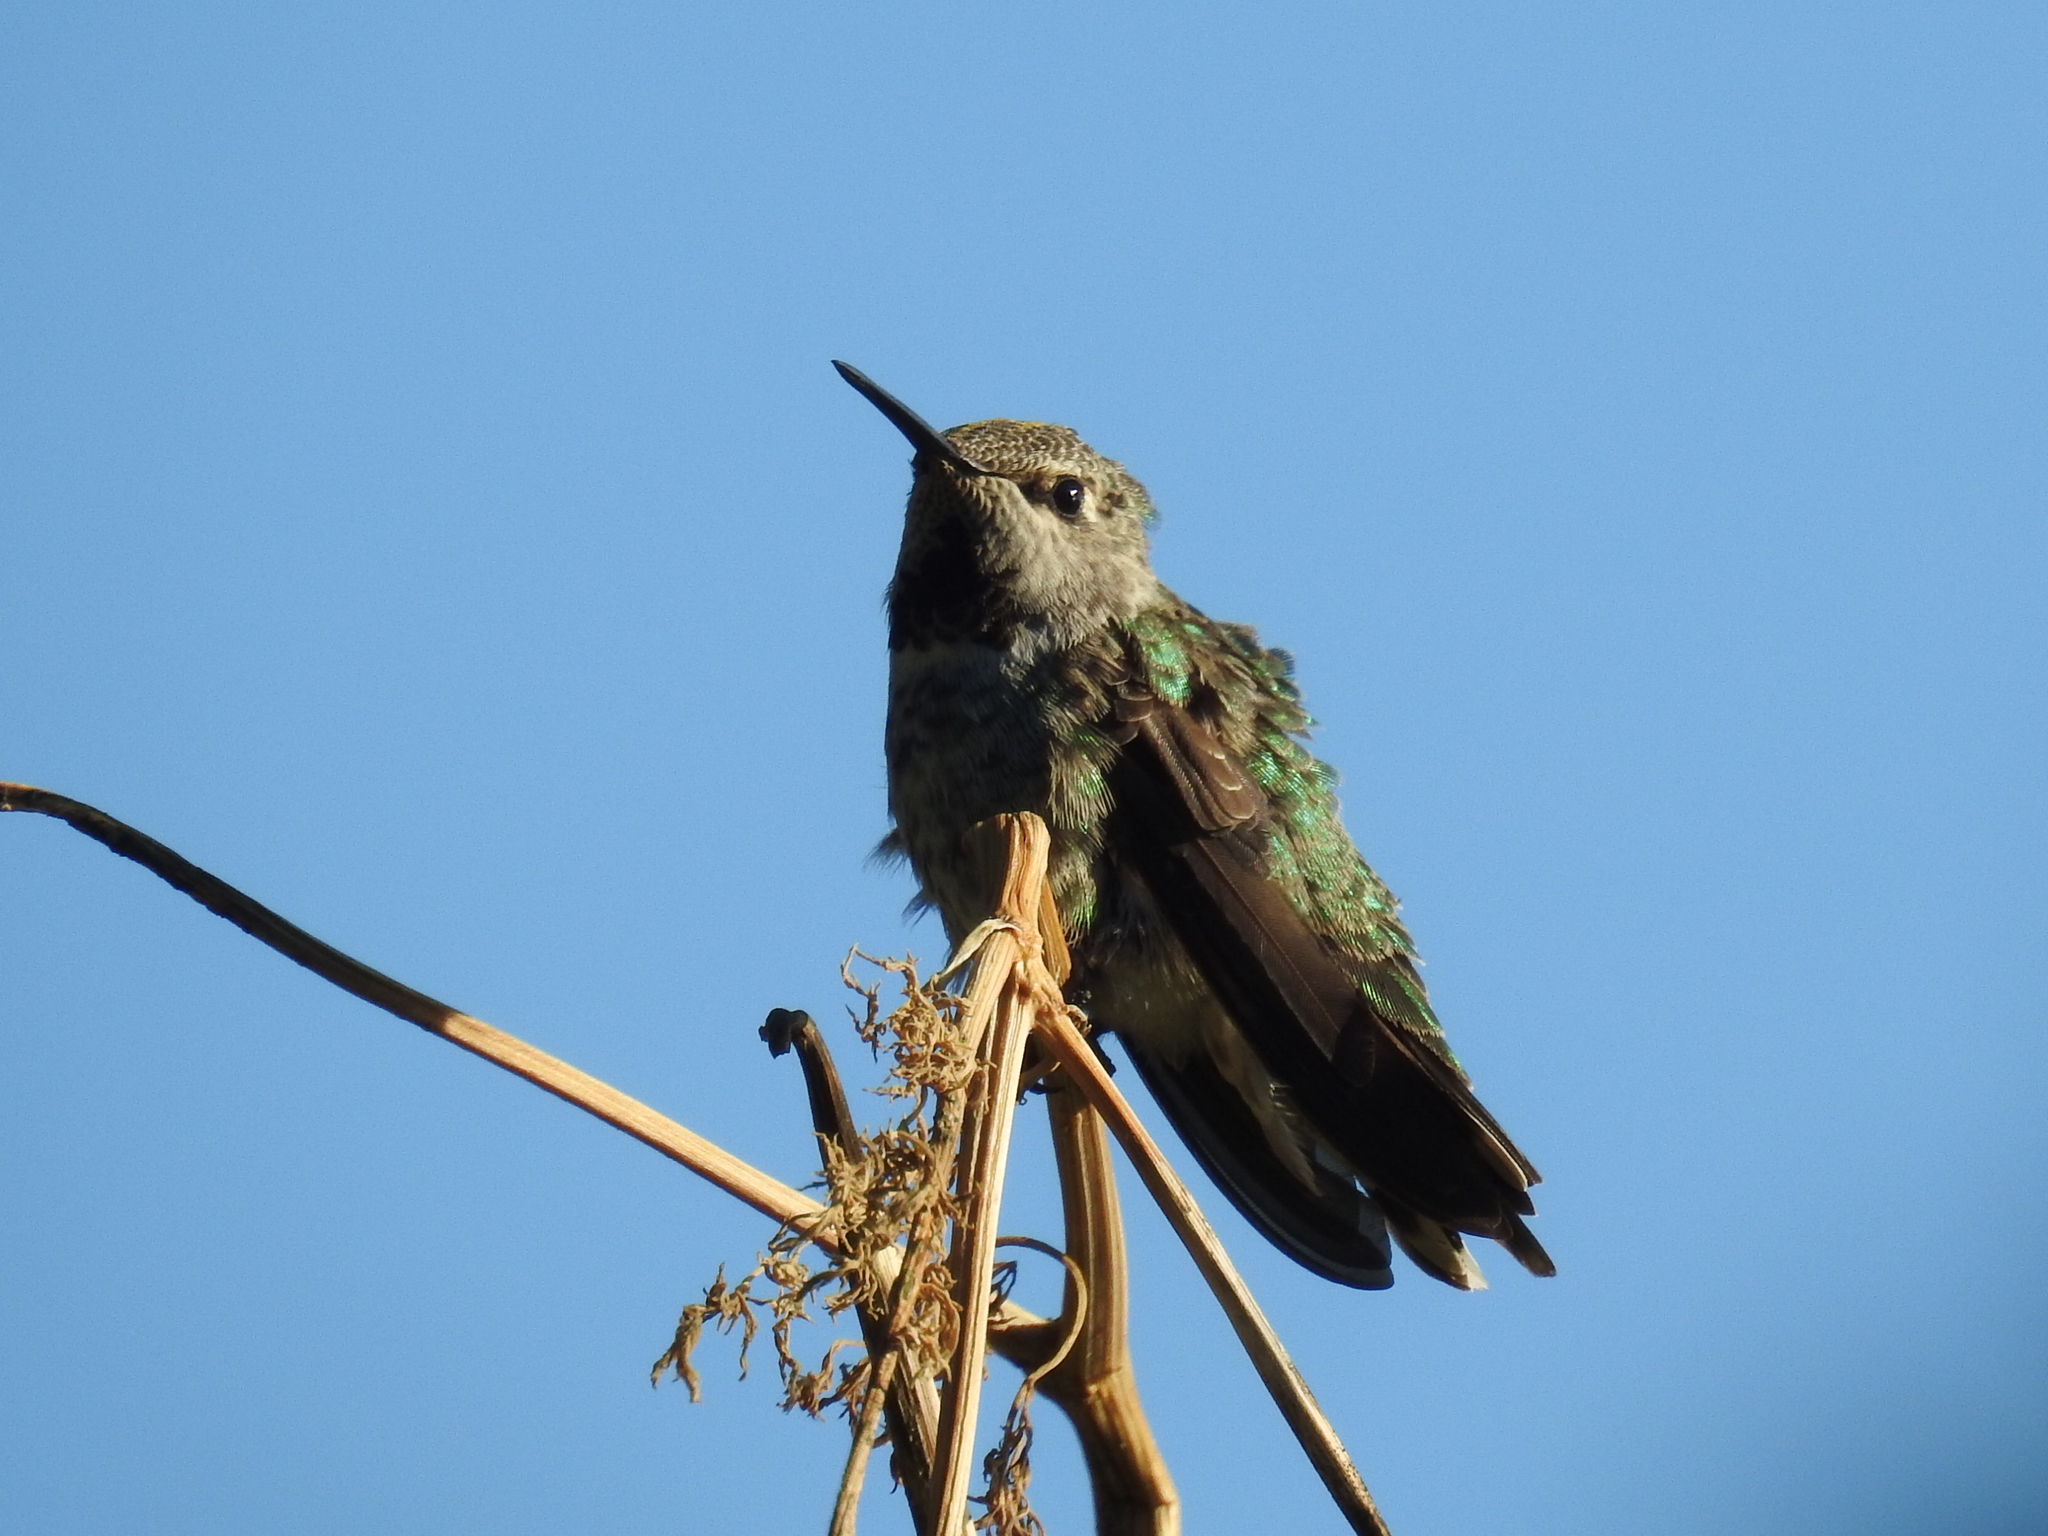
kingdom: Animalia
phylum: Chordata
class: Aves
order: Apodiformes
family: Trochilidae
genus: Calypte
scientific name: Calypte anna
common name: Anna's hummingbird
